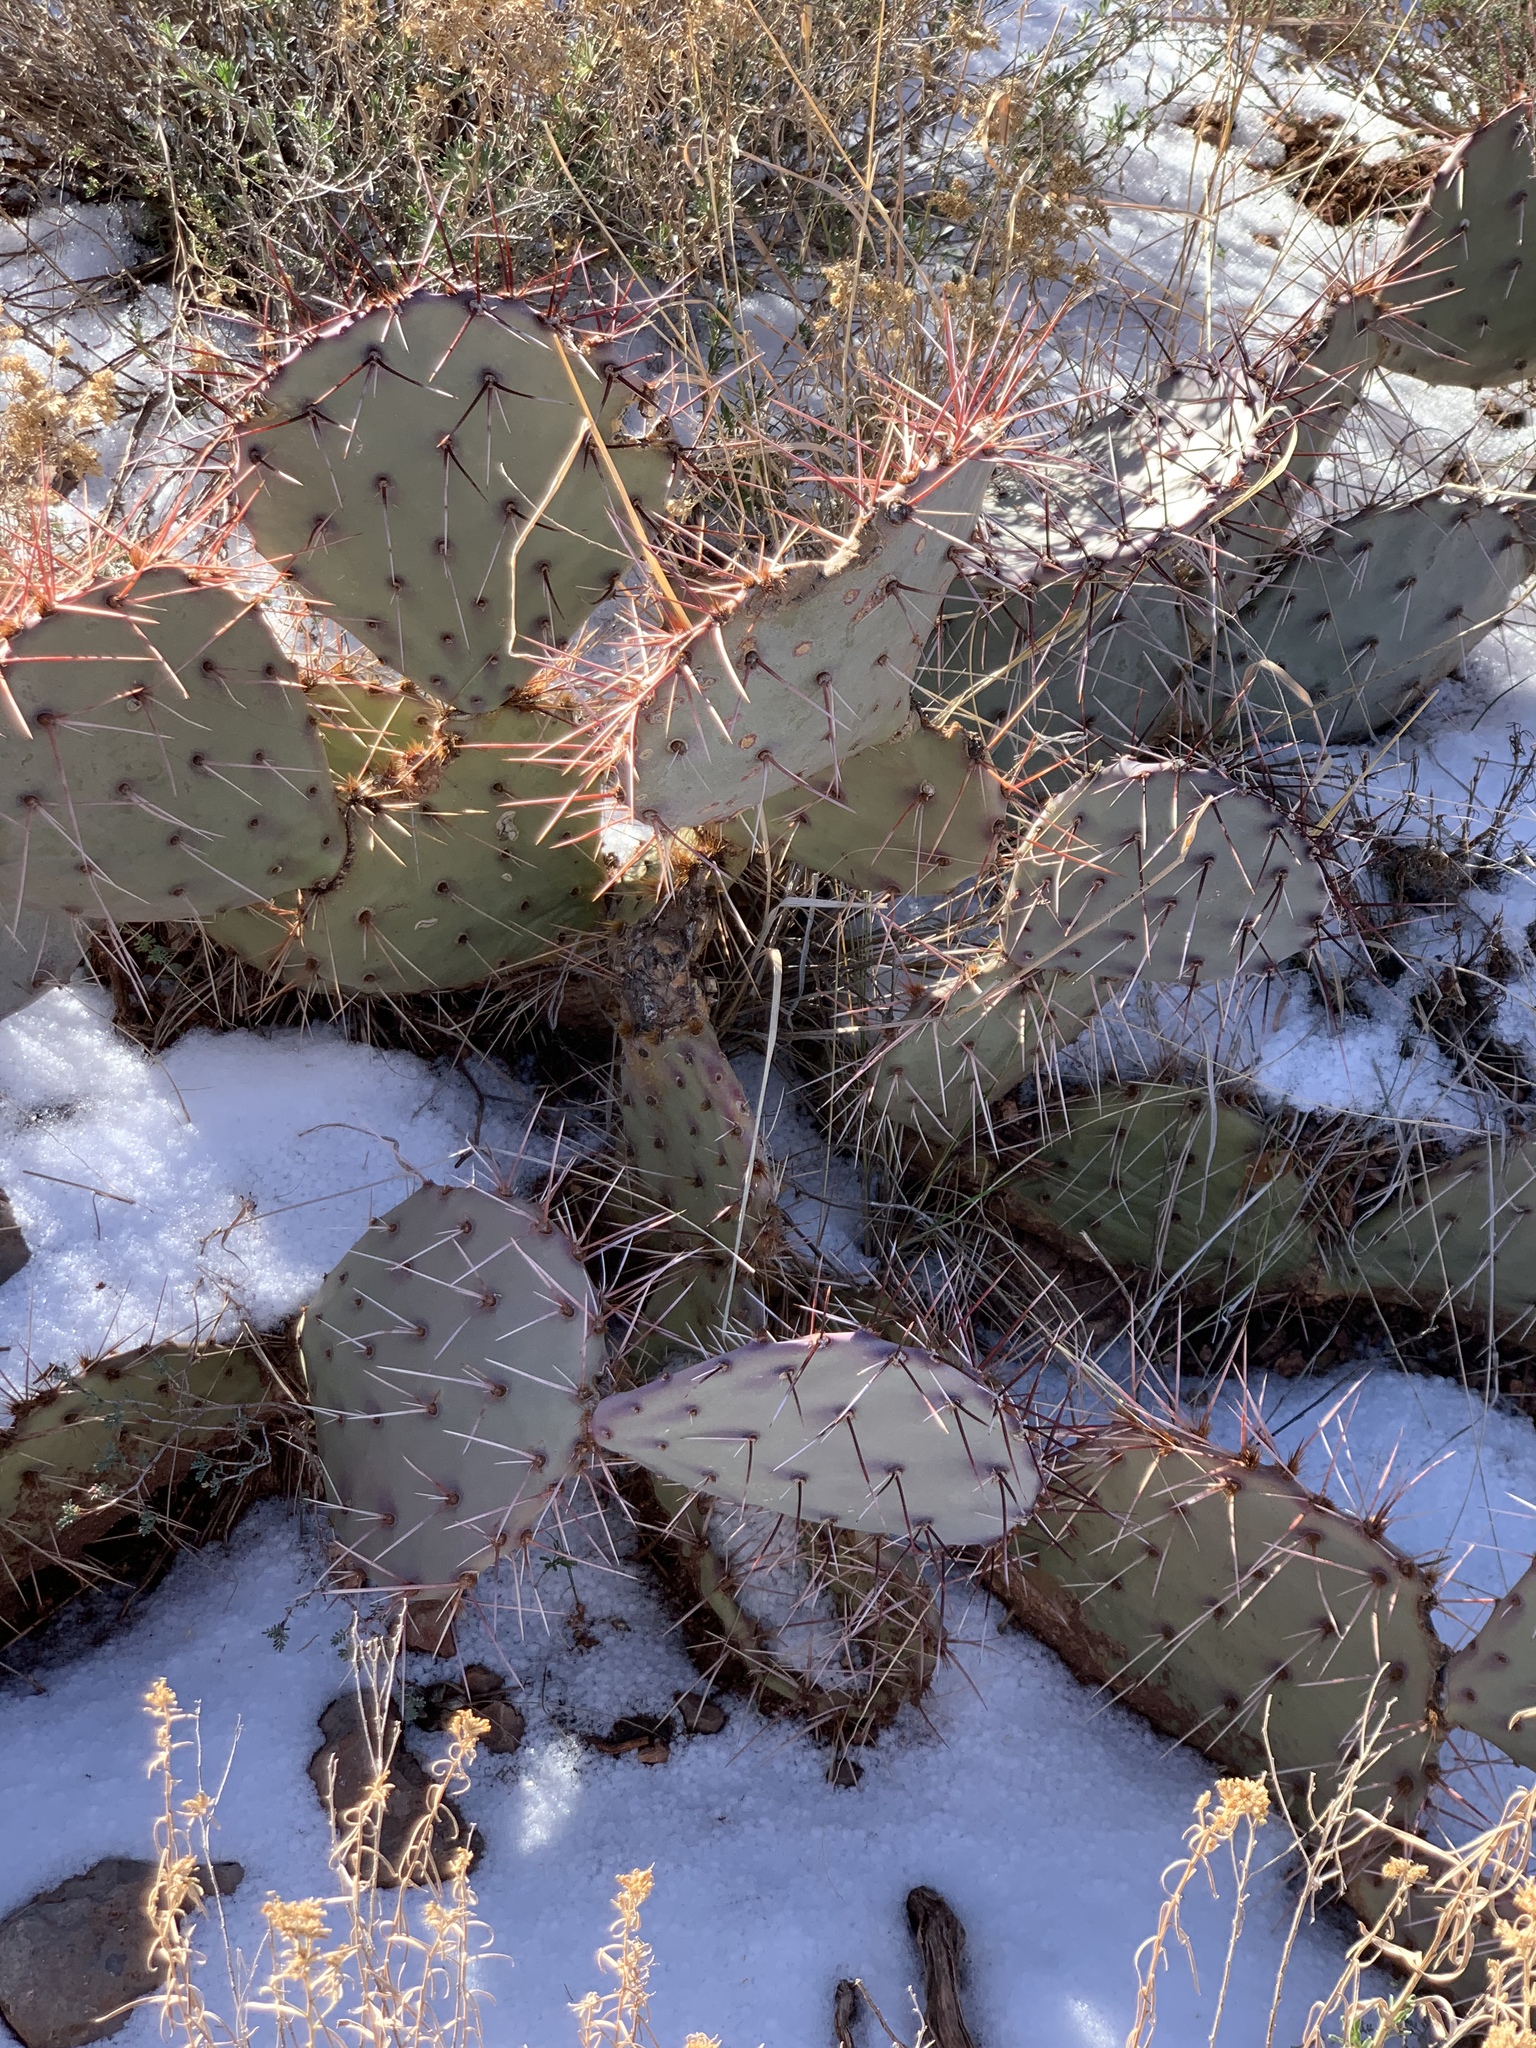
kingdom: Plantae
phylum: Tracheophyta
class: Magnoliopsida
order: Caryophyllales
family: Cactaceae
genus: Opuntia
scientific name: Opuntia macrocentra
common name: Purple prickly-pear
